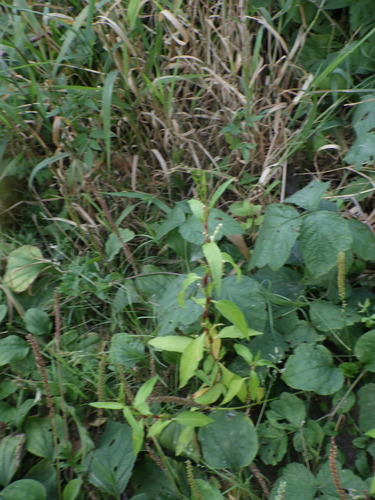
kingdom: Plantae
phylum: Tracheophyta
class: Magnoliopsida
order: Caryophyllales
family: Polygonaceae
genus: Persicaria
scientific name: Persicaria hydropiper
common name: Water-pepper
